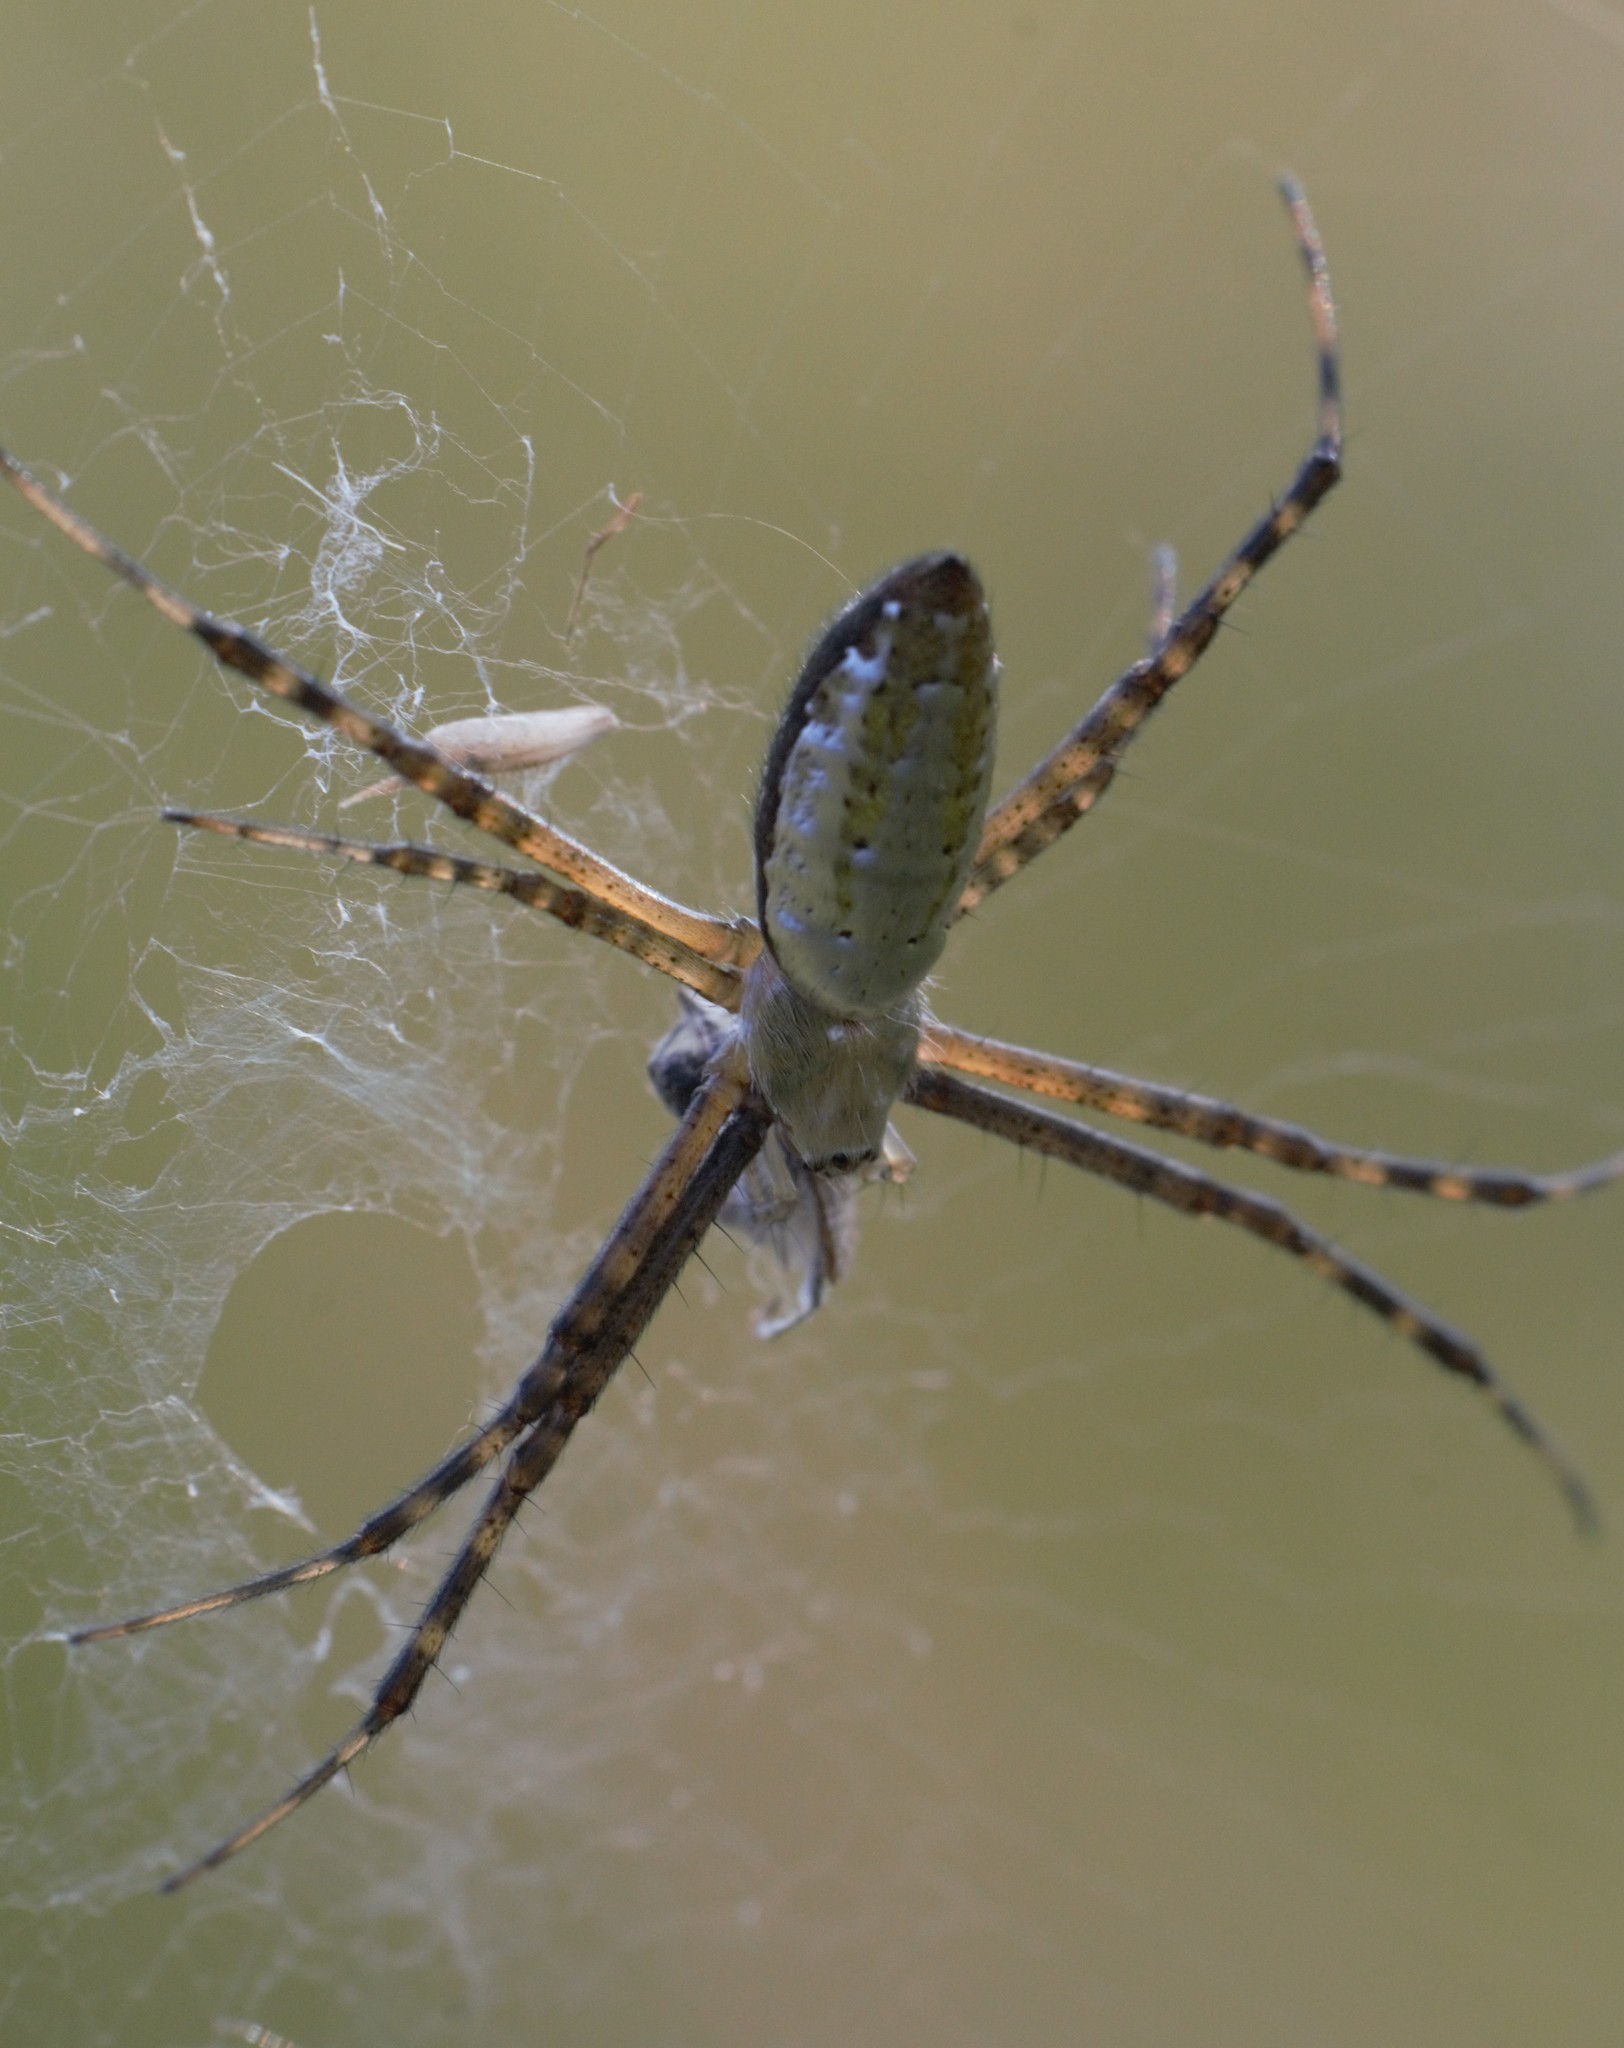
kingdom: Animalia
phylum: Arthropoda
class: Arachnida
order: Araneae
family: Araneidae
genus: Argiope
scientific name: Argiope trifasciata
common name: Banded garden spider
